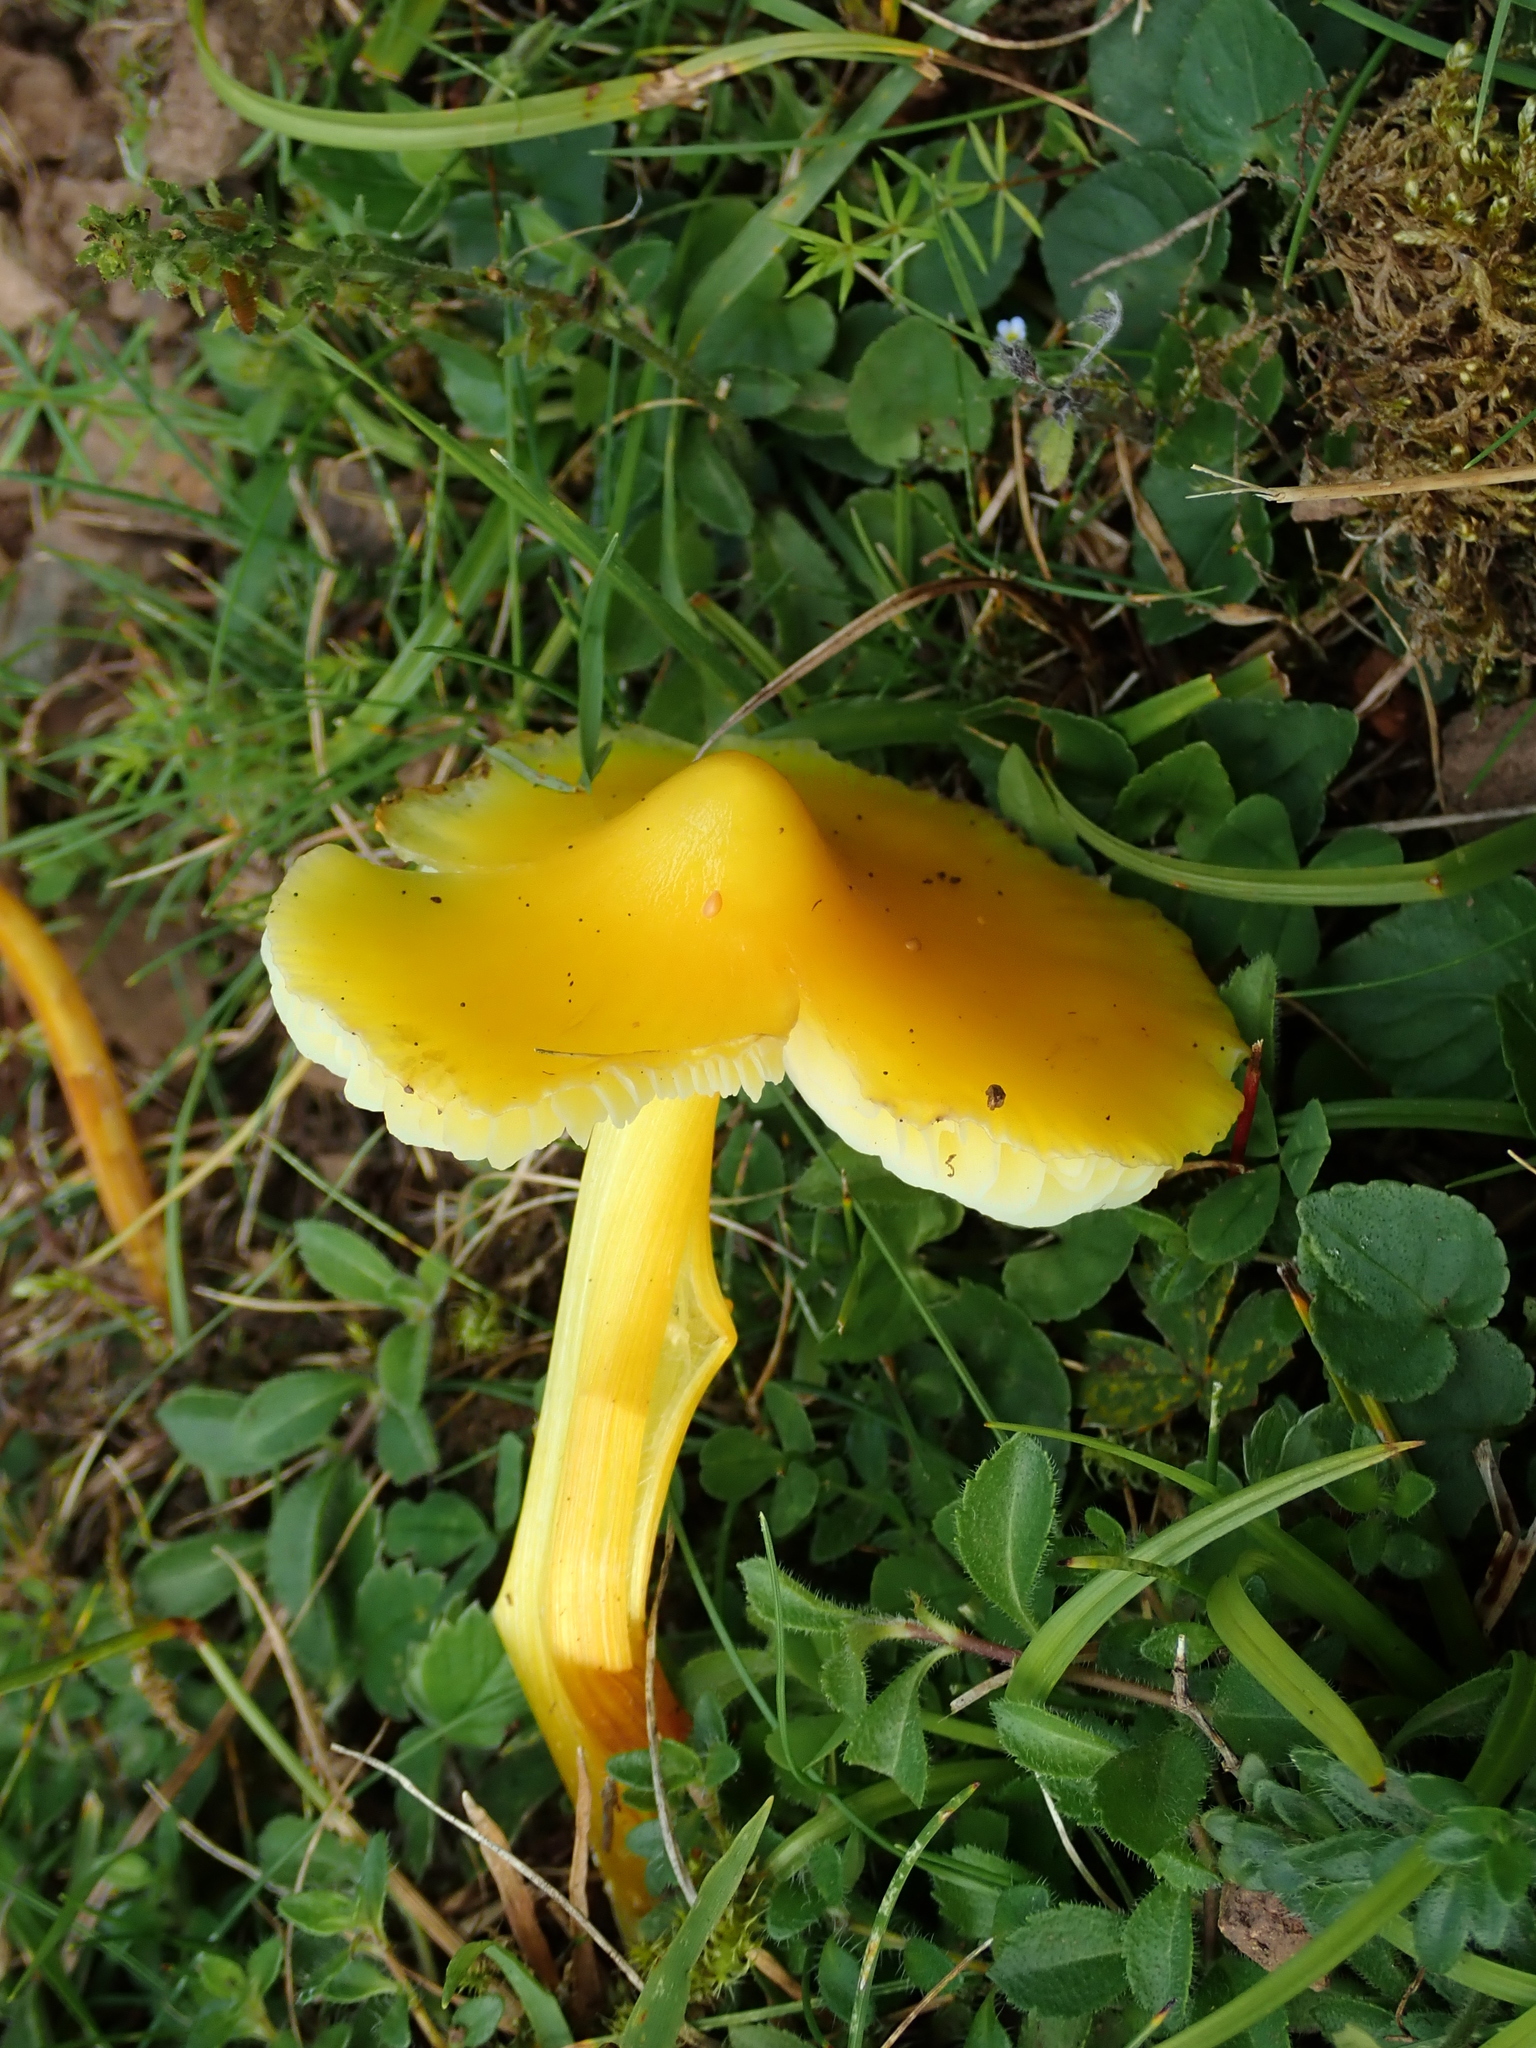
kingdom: Fungi
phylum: Basidiomycota
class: Agaricomycetes
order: Agaricales
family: Hygrophoraceae
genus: Hygrocybe
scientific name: Hygrocybe acutoconica
